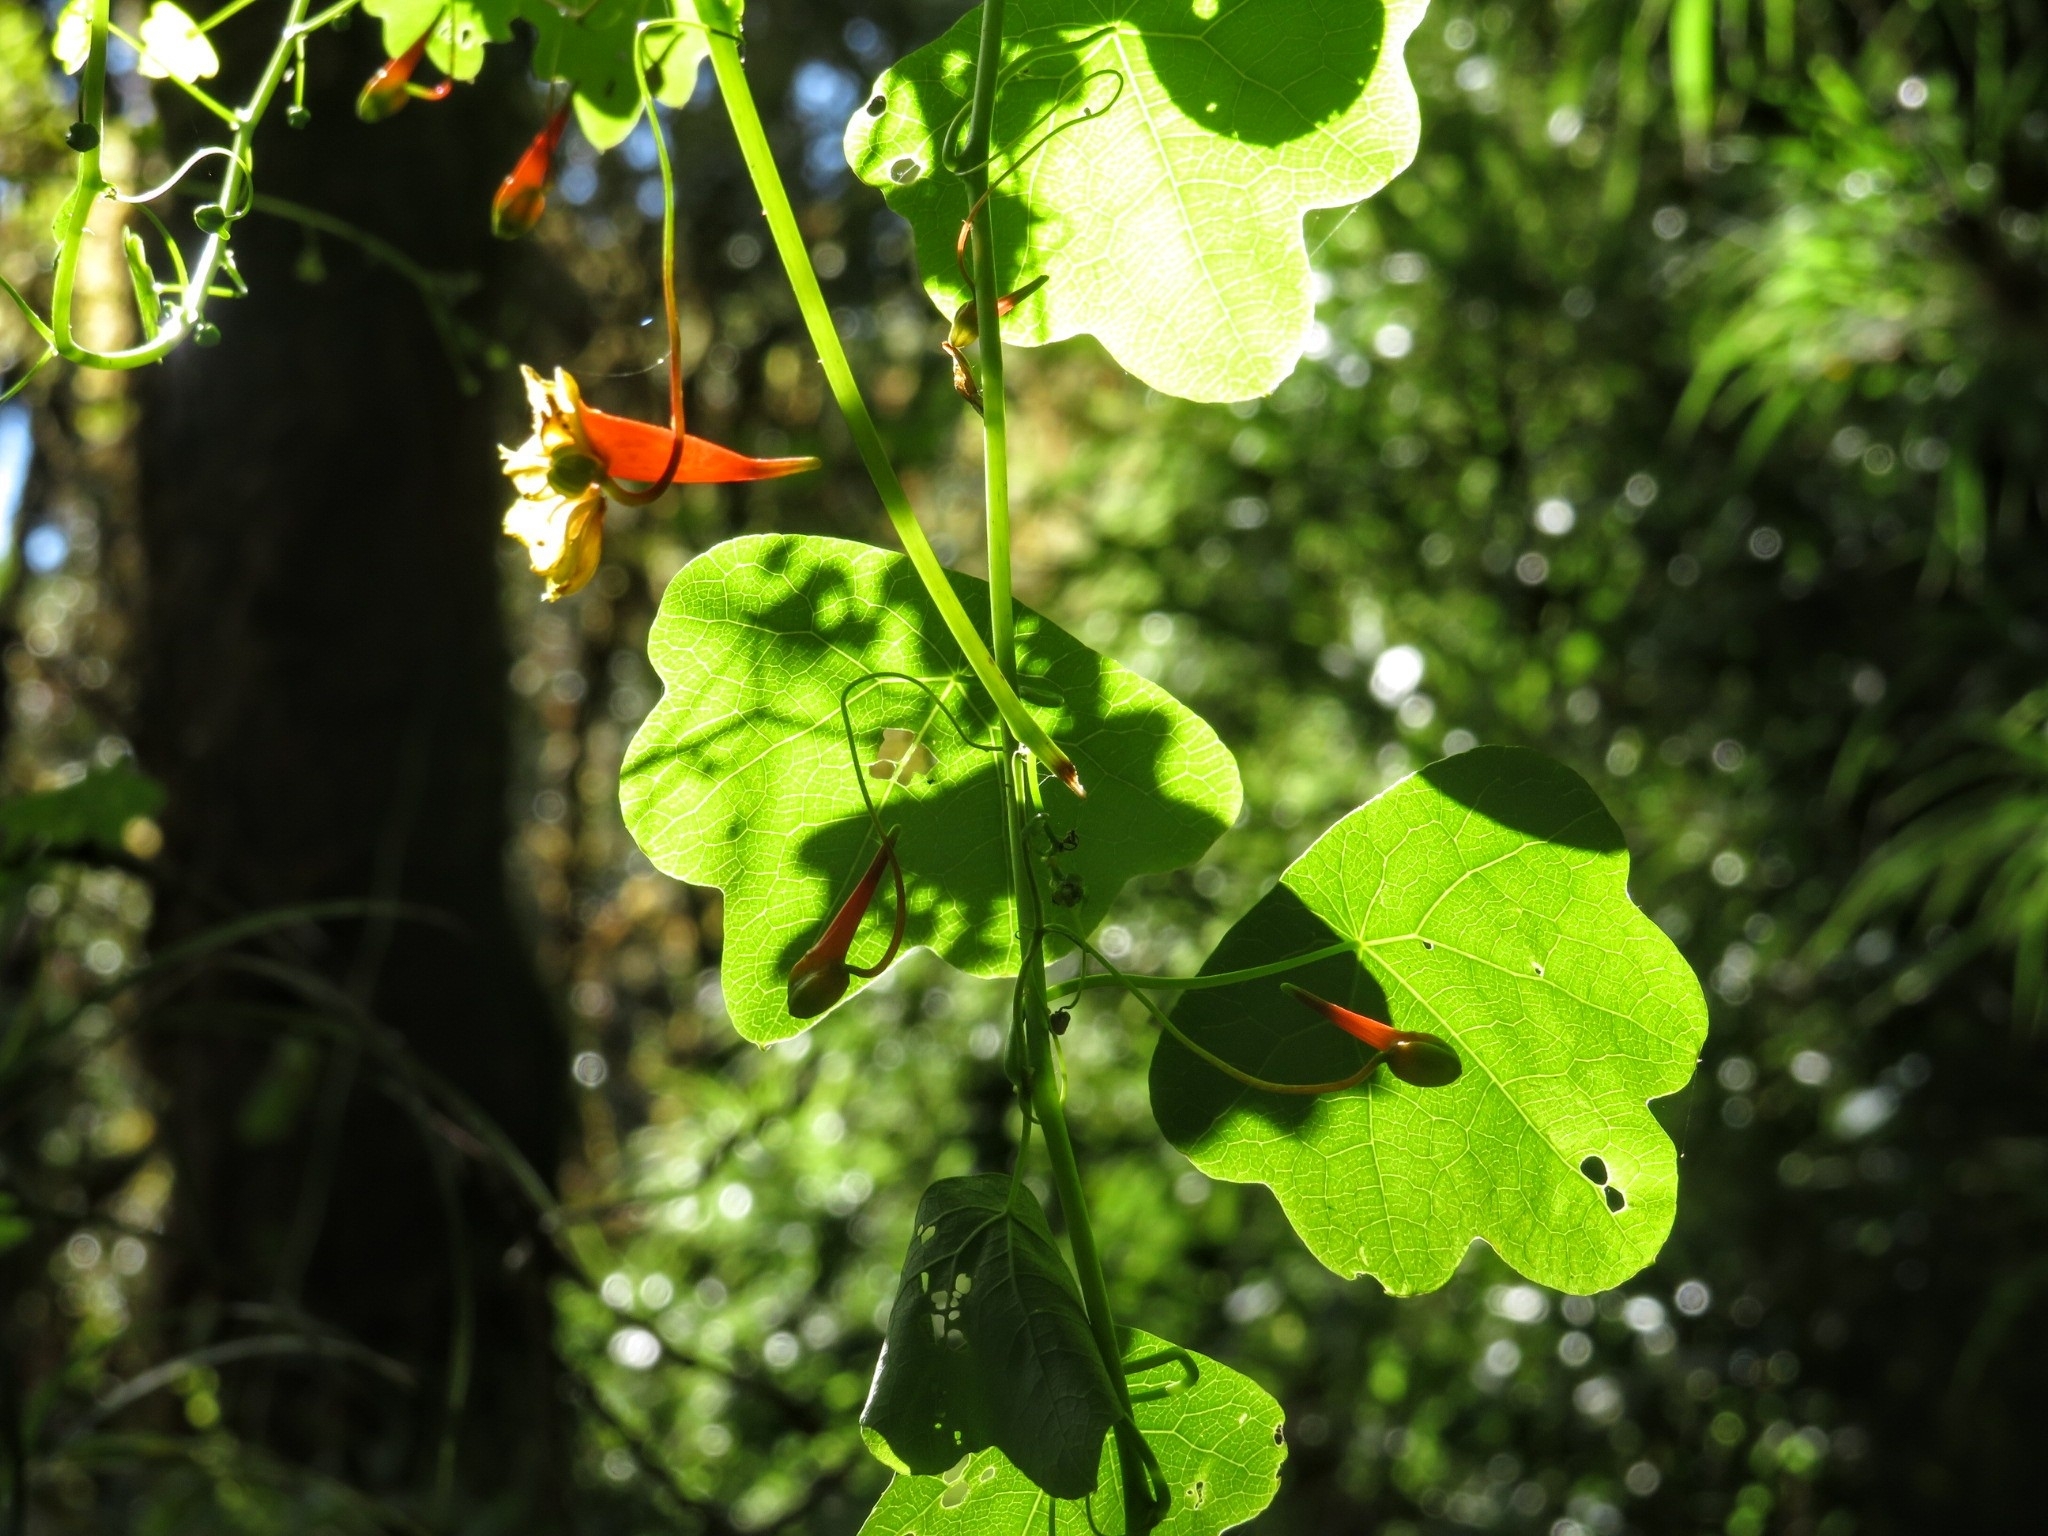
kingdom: Plantae
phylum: Tracheophyta
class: Magnoliopsida
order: Brassicales
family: Tropaeolaceae
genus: Tropaeolum
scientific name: Tropaeolum emarginatum
